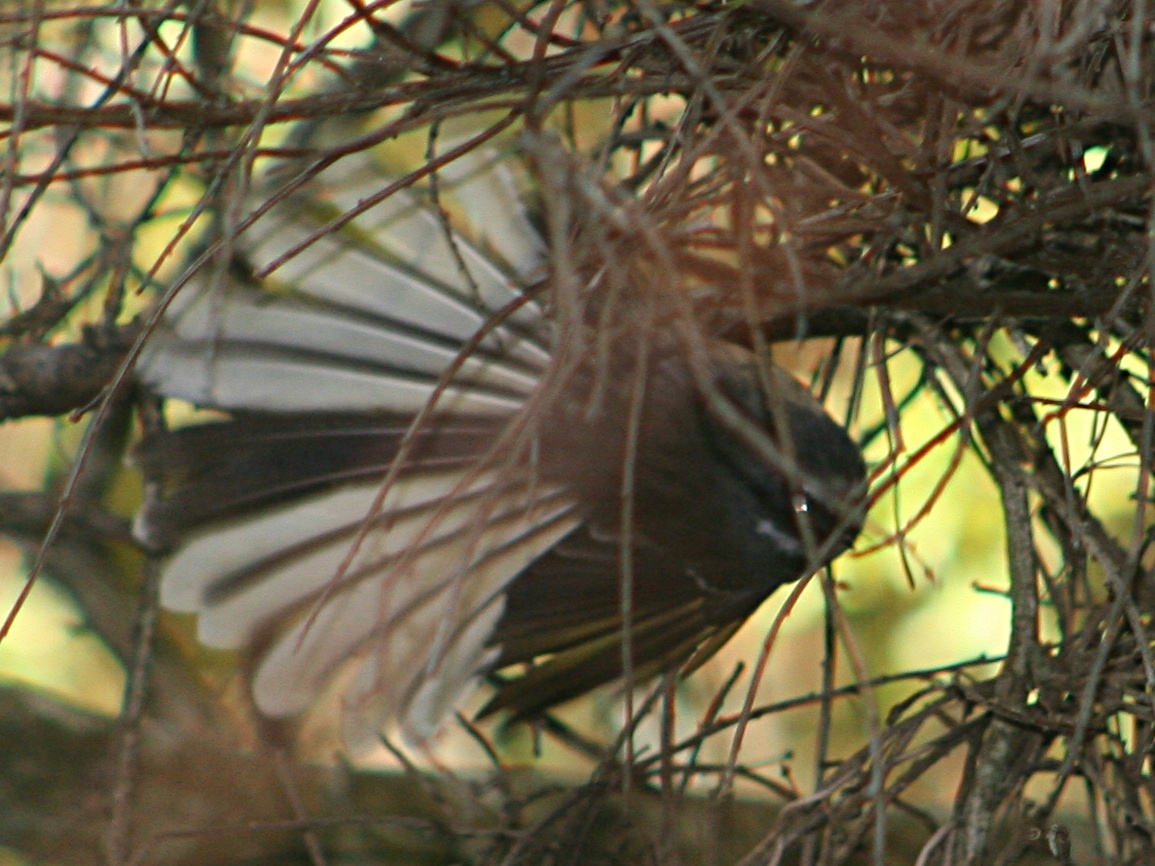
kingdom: Animalia
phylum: Chordata
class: Aves
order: Passeriformes
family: Rhipiduridae
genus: Rhipidura
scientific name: Rhipidura fuliginosa
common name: New zealand fantail
